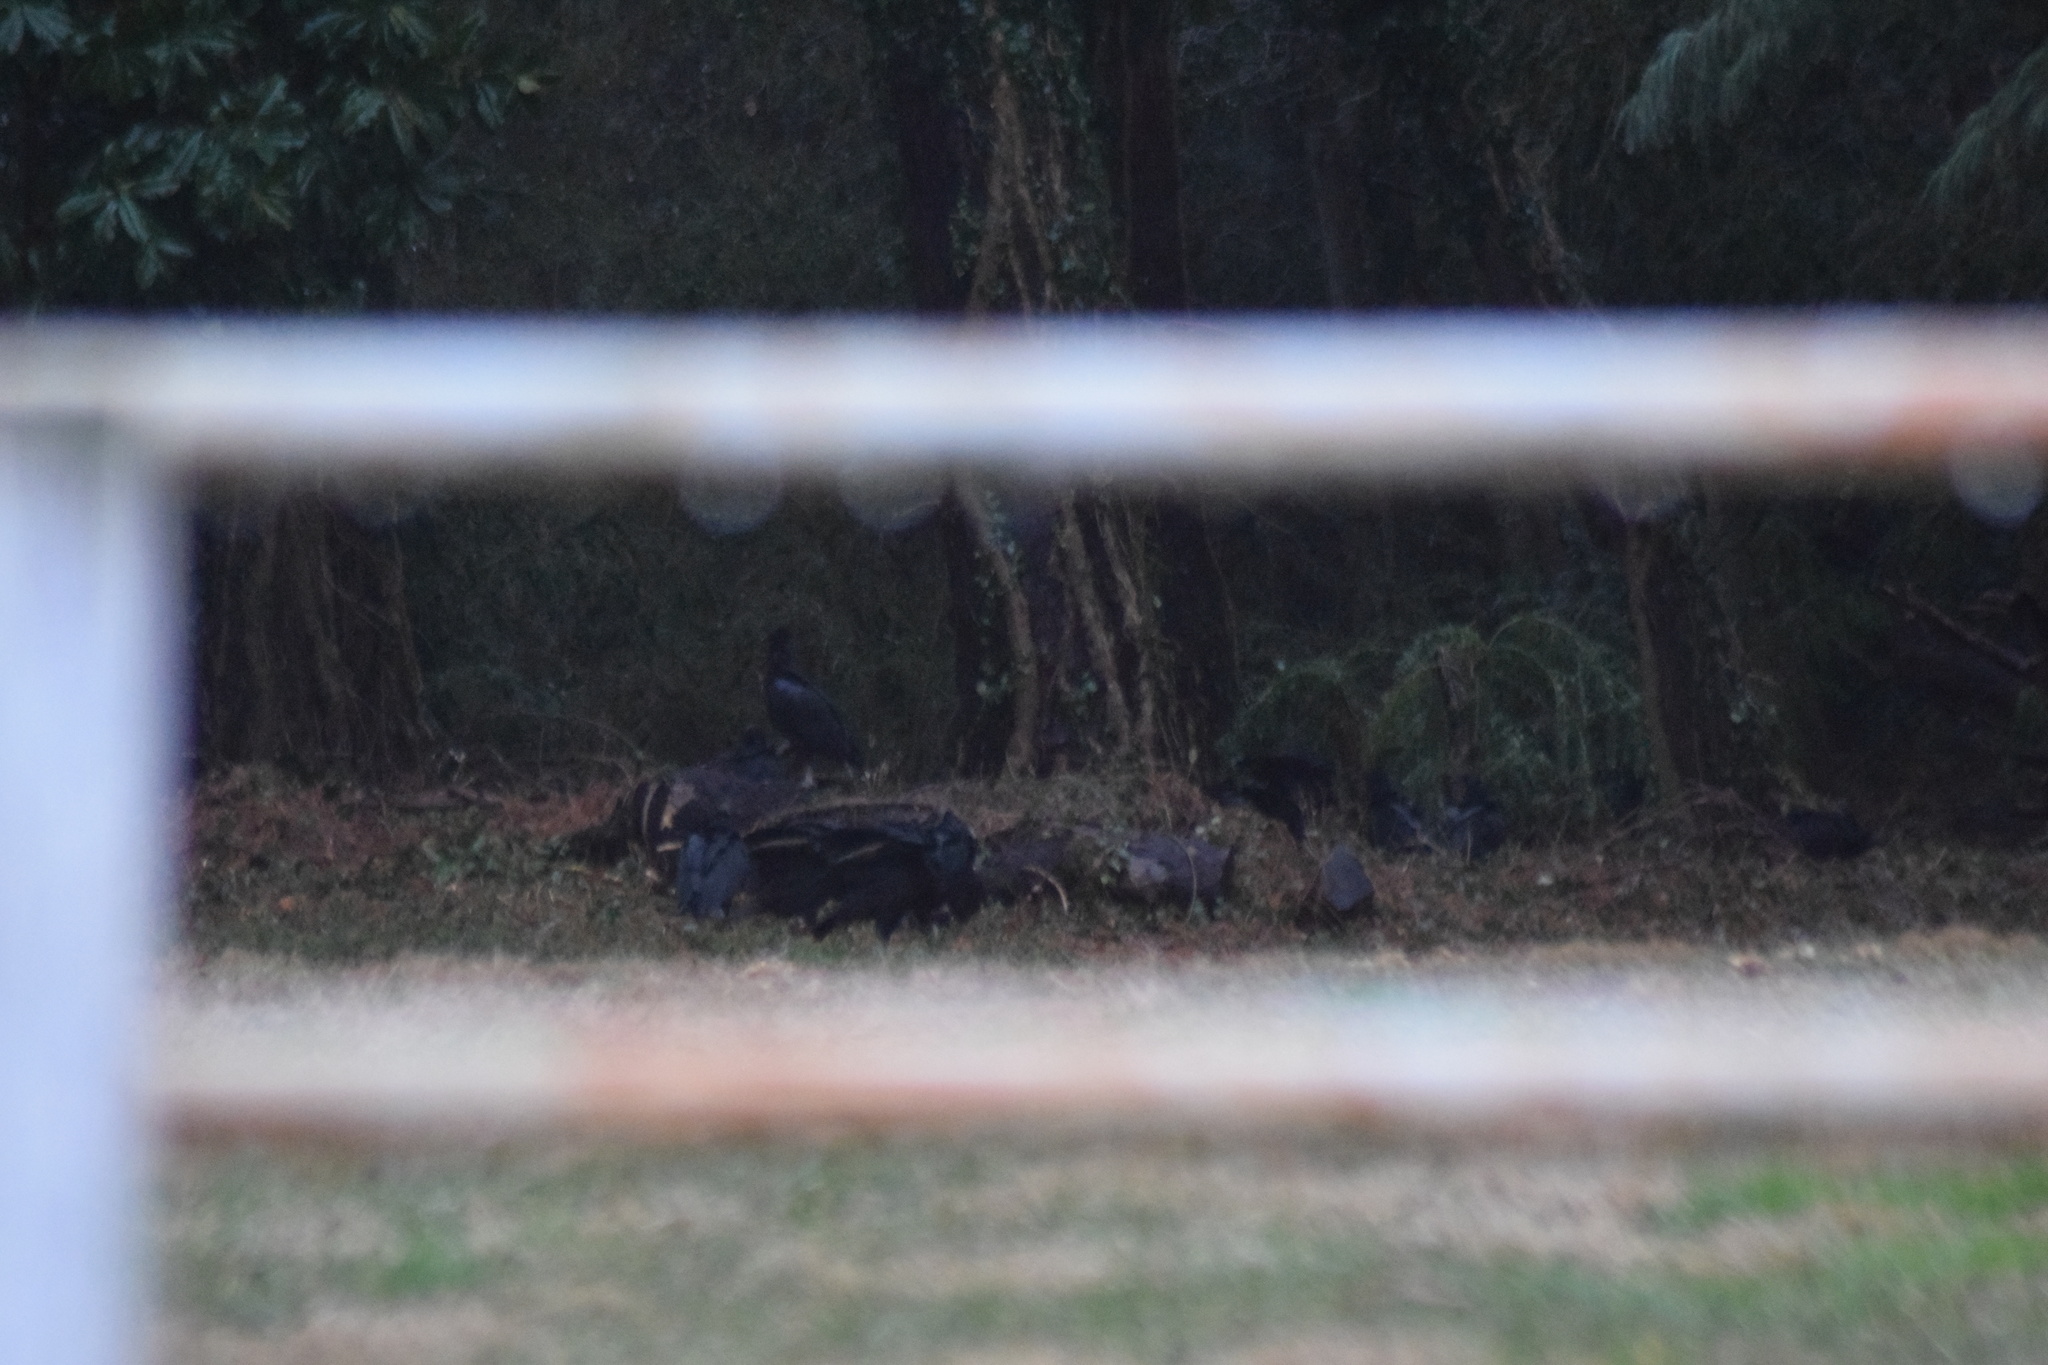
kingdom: Animalia
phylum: Chordata
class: Aves
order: Accipitriformes
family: Cathartidae
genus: Coragyps
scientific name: Coragyps atratus
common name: Black vulture
